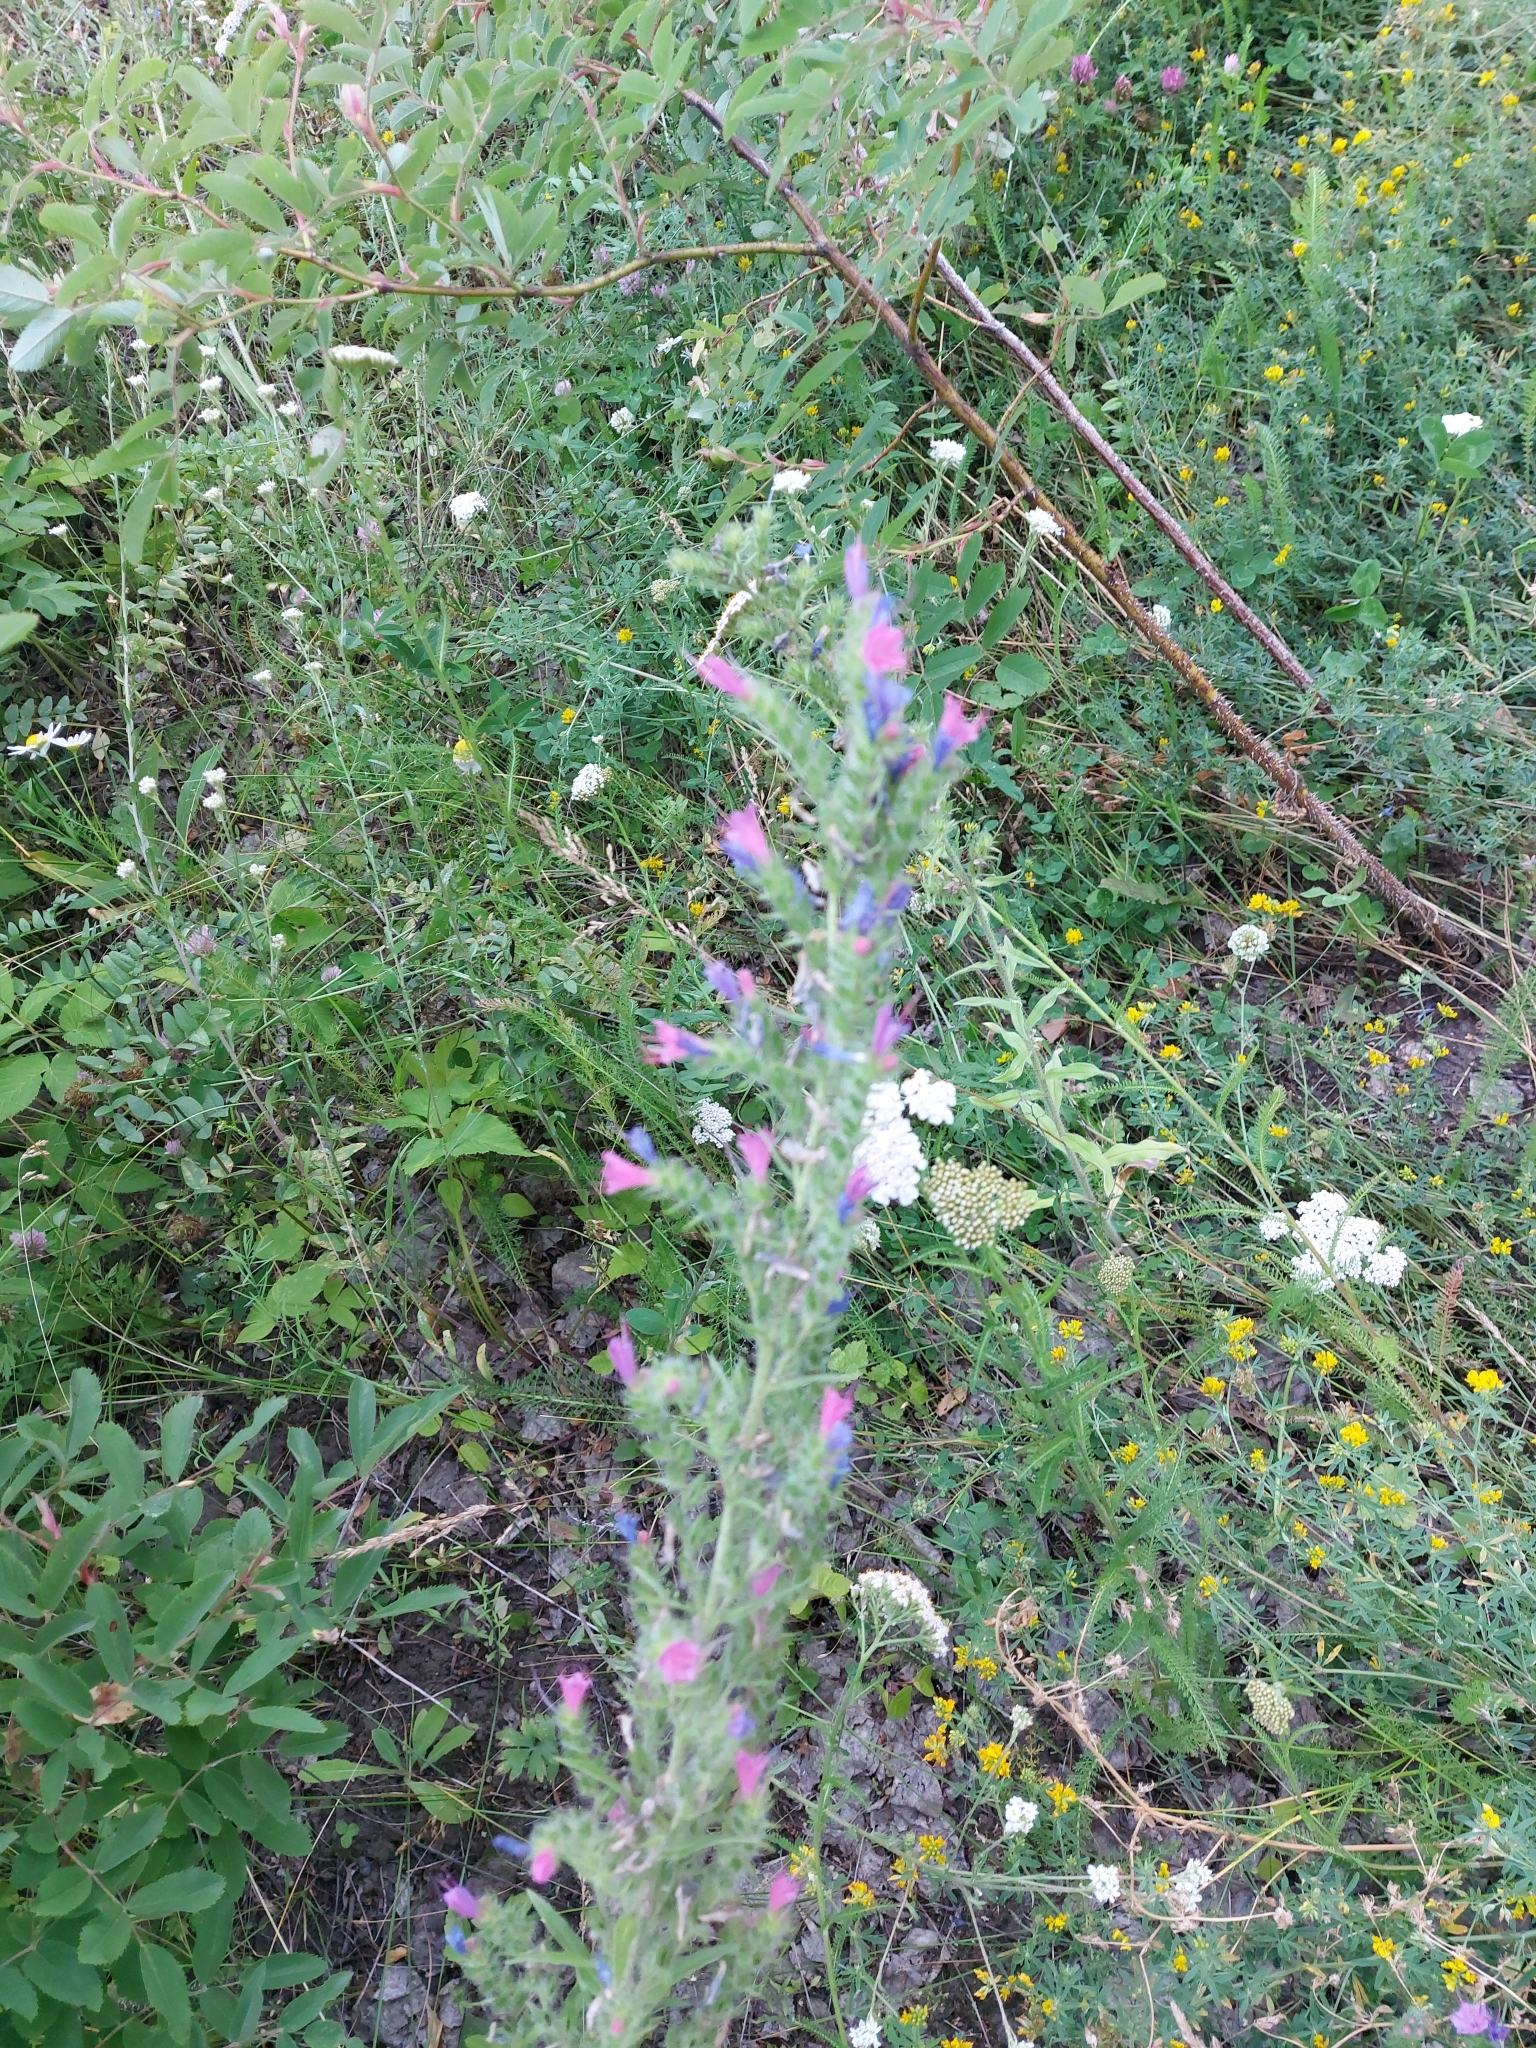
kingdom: Plantae
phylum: Tracheophyta
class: Magnoliopsida
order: Boraginales
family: Boraginaceae
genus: Echium
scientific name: Echium vulgare
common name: Common viper's bugloss
